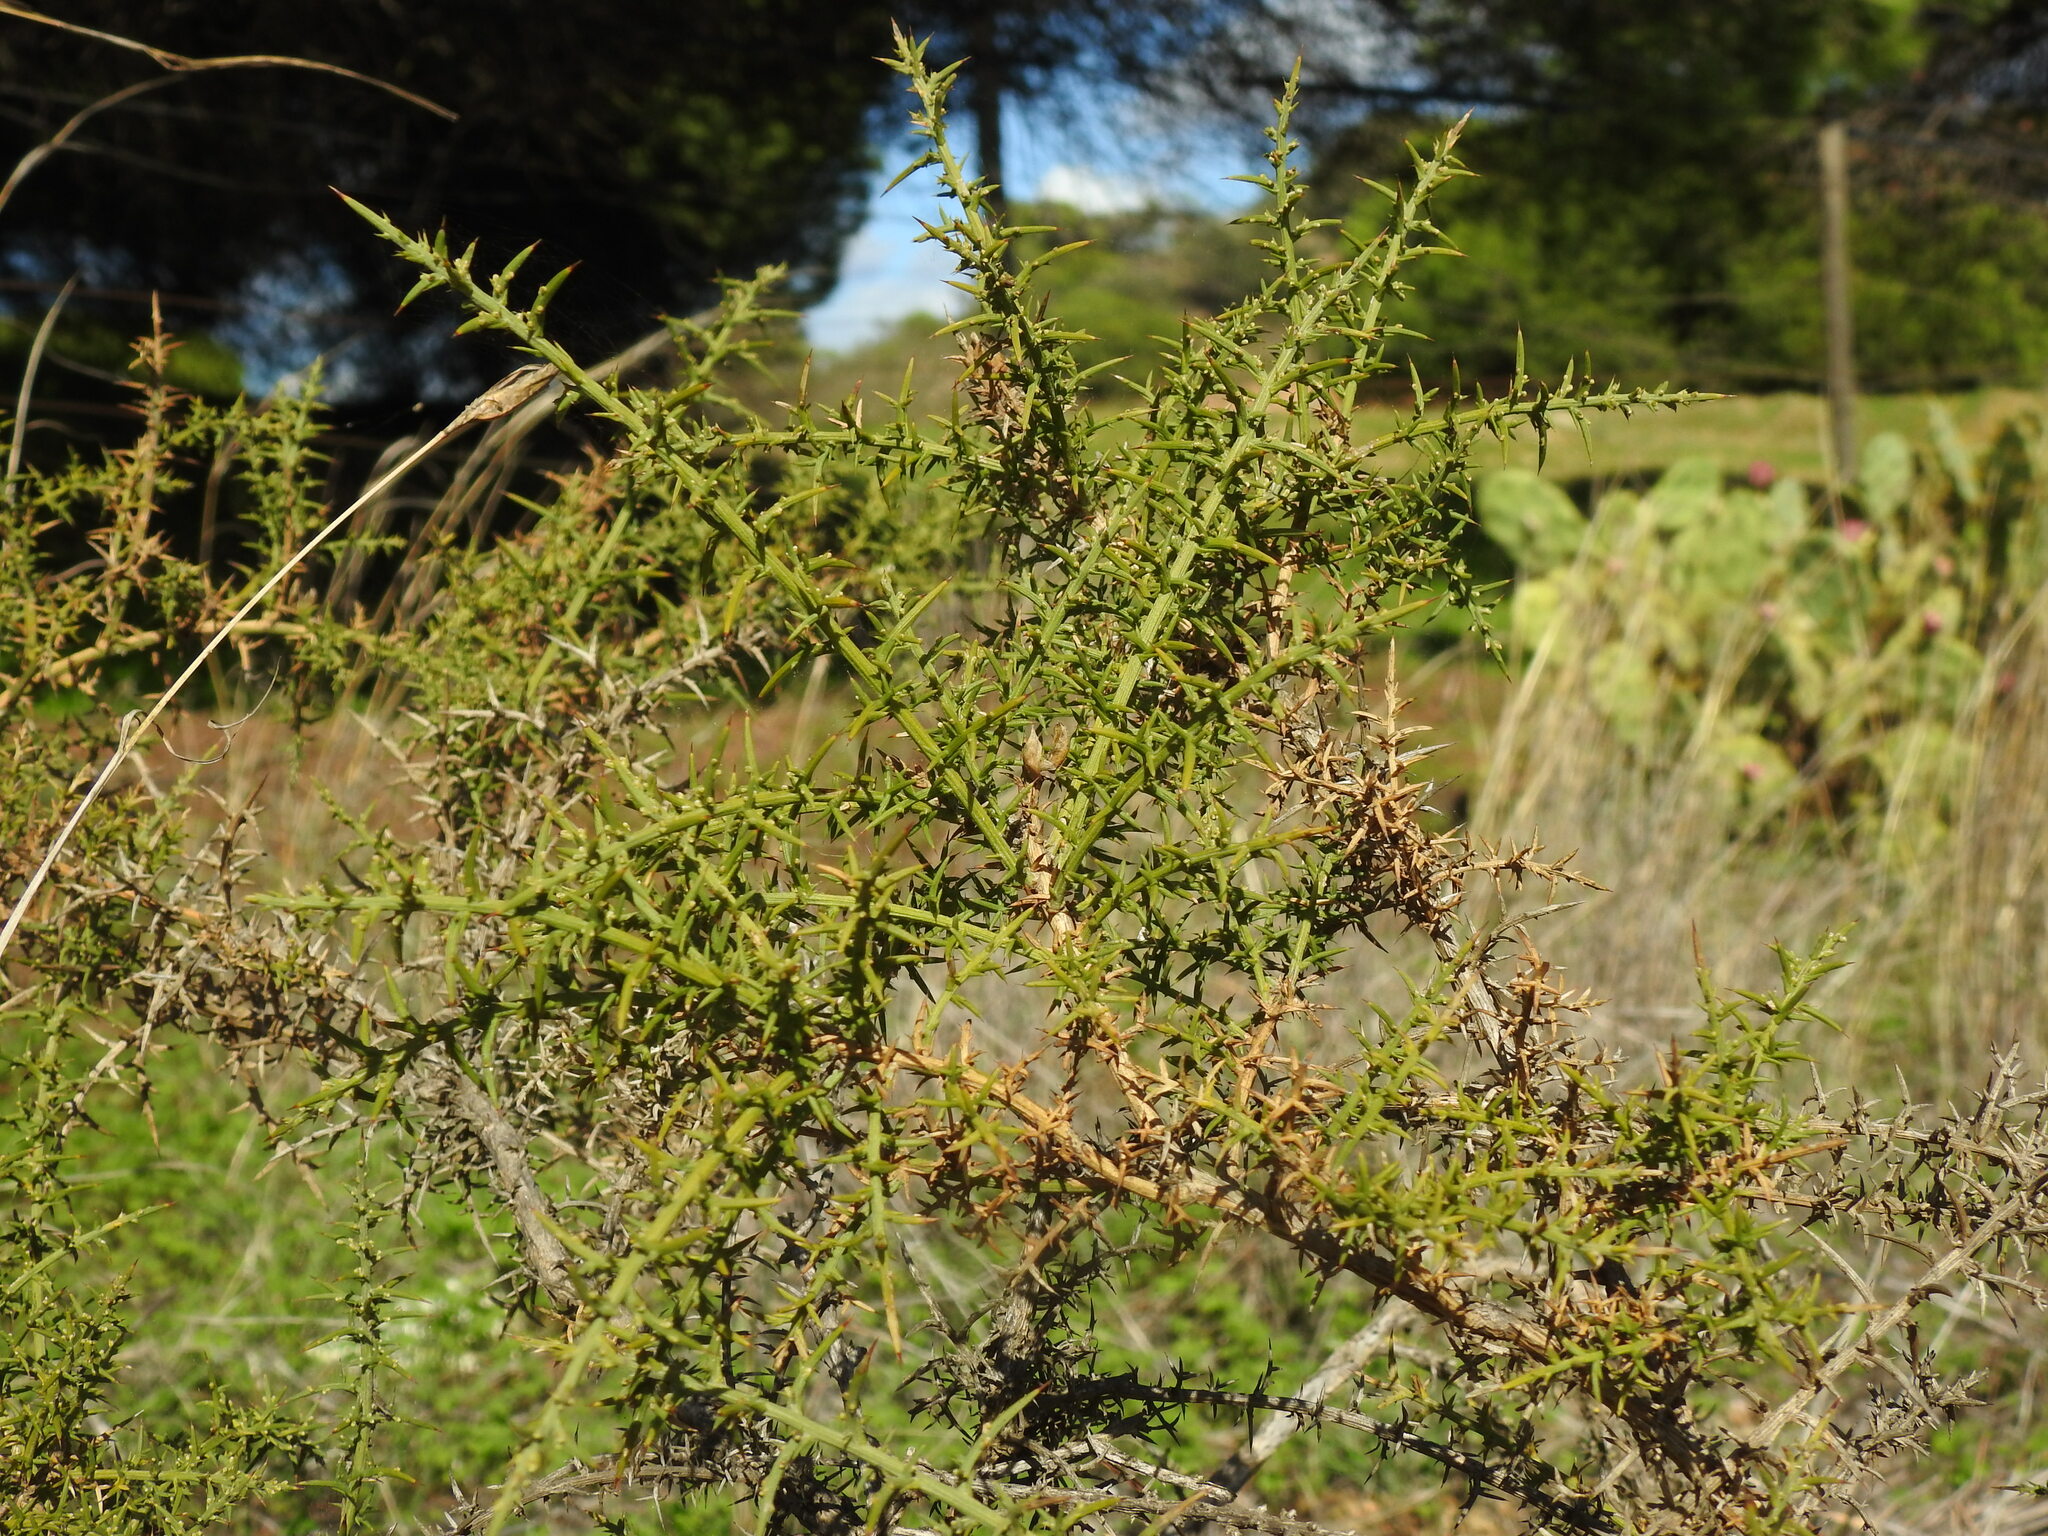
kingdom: Plantae
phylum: Tracheophyta
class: Magnoliopsida
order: Fabales
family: Fabaceae
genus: Ulex
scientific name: Ulex australis
